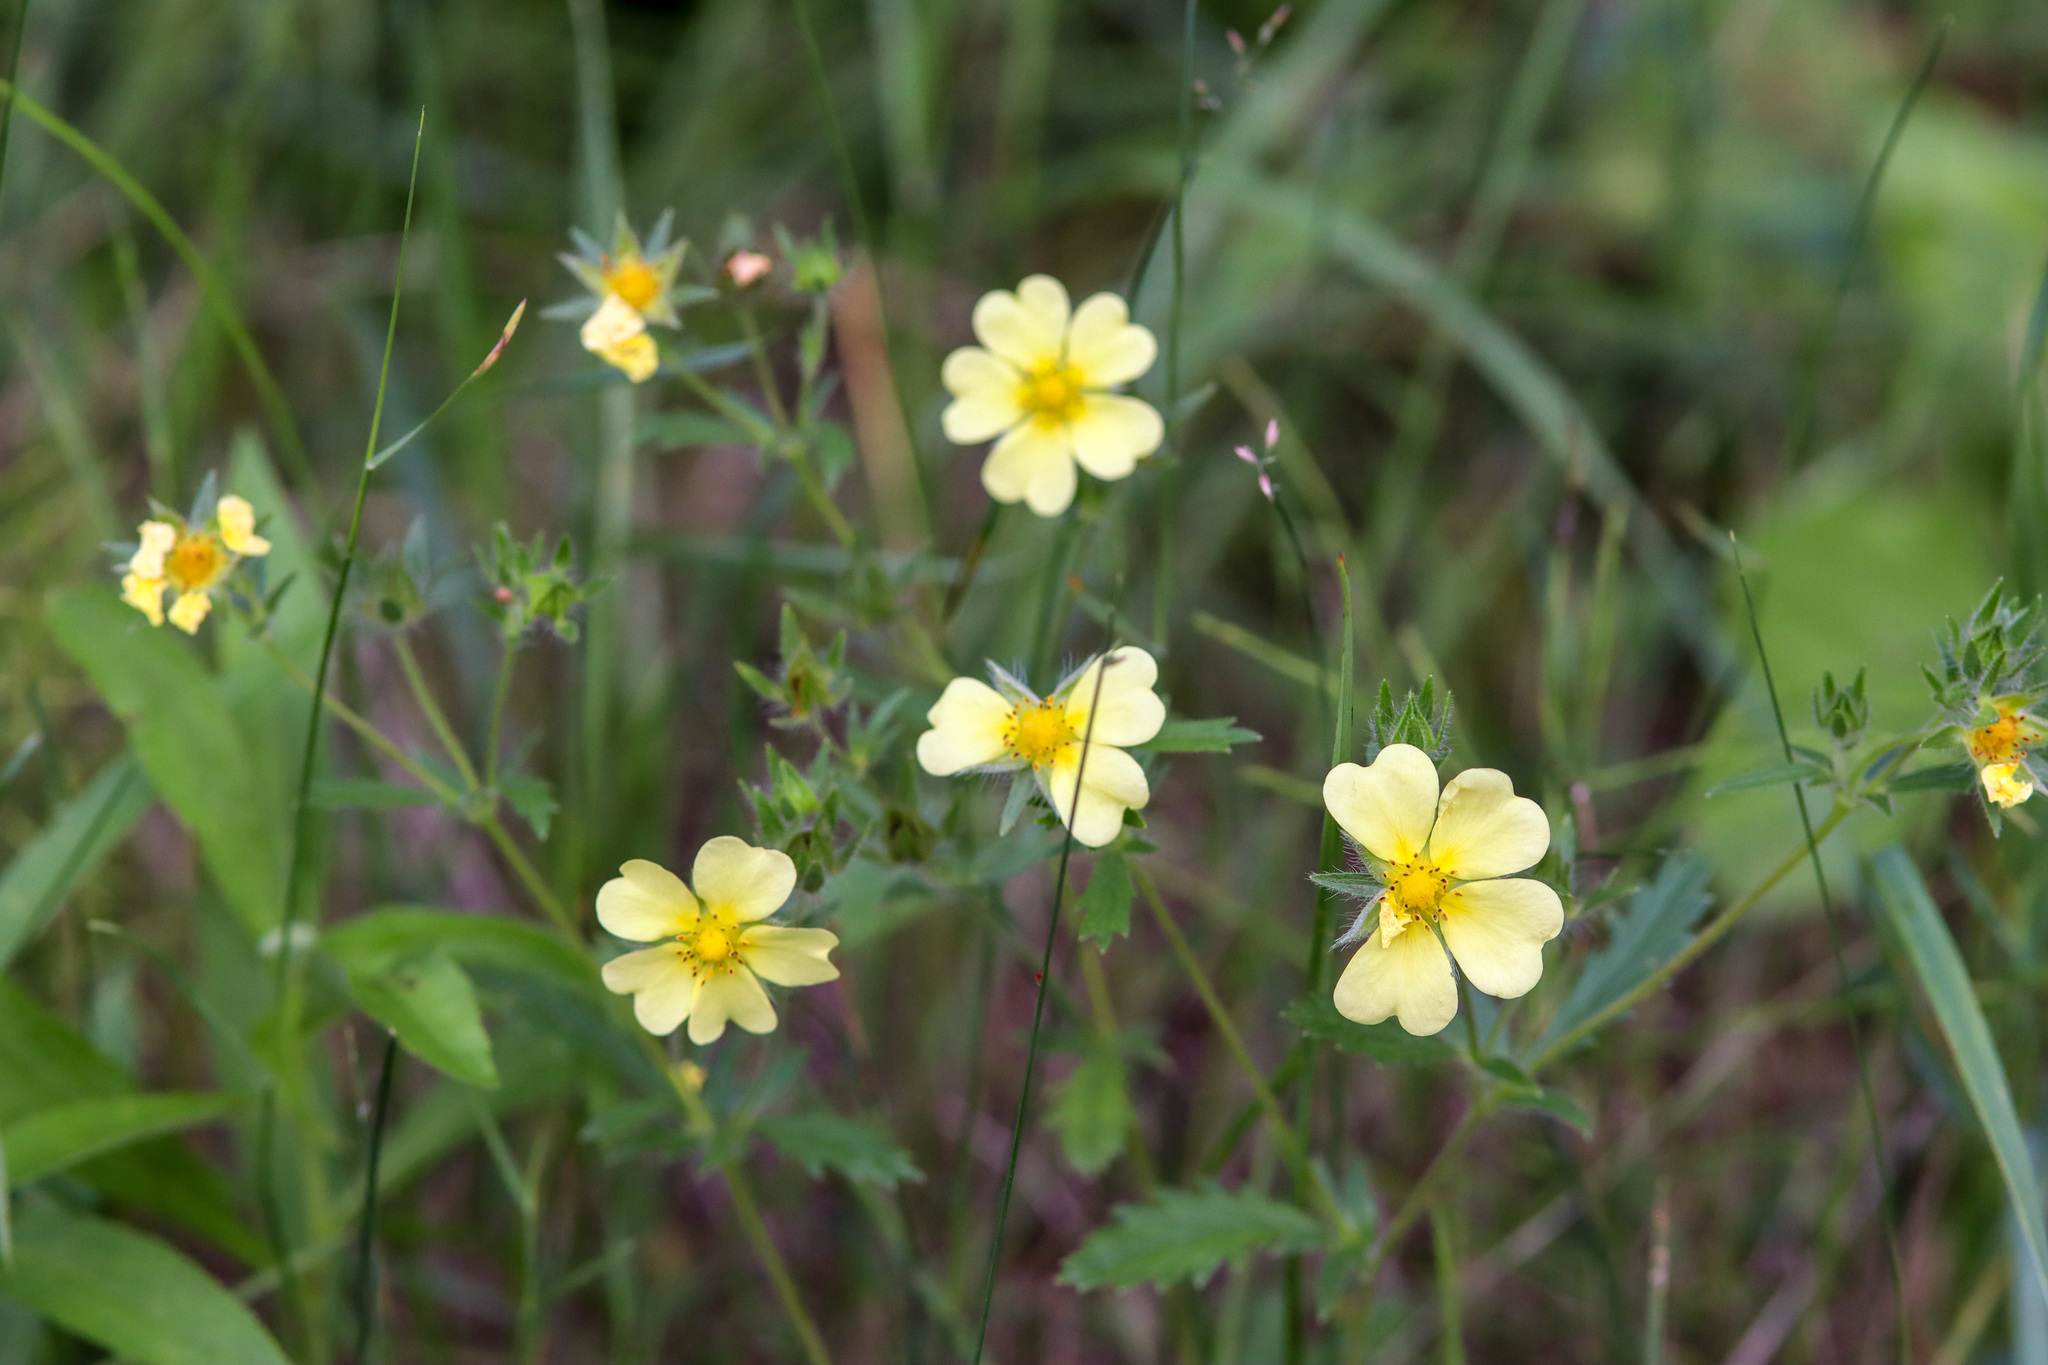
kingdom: Plantae
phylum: Tracheophyta
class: Magnoliopsida
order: Rosales
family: Rosaceae
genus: Potentilla
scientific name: Potentilla recta
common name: Sulphur cinquefoil
